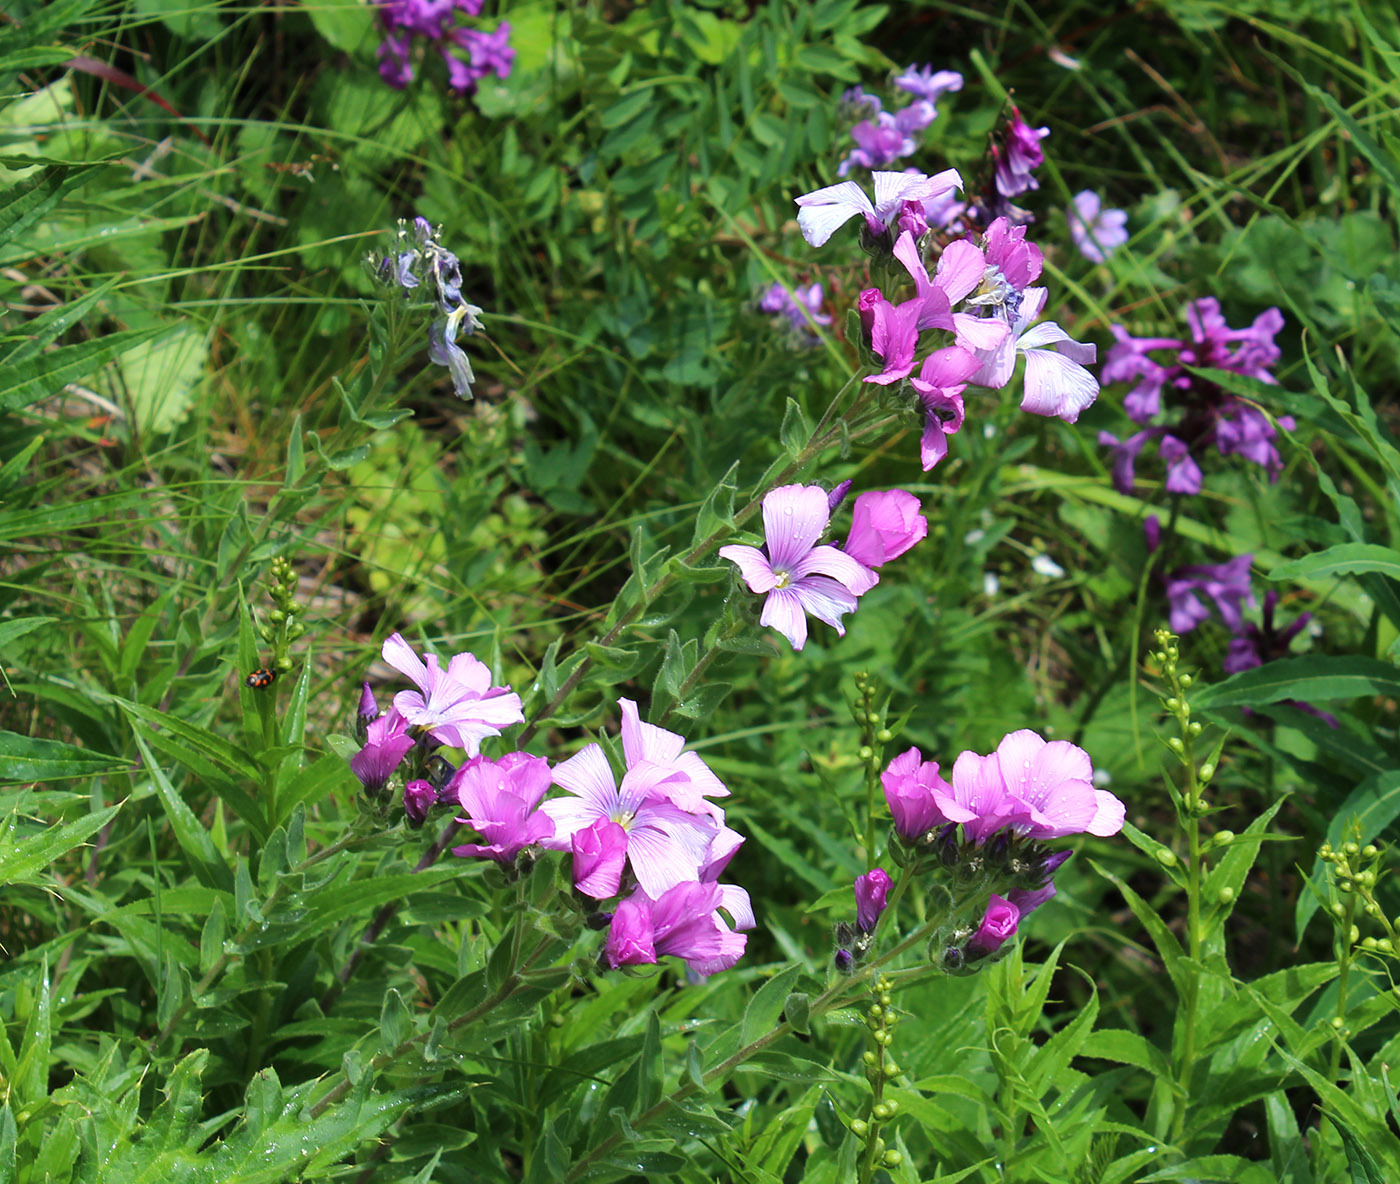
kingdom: Plantae
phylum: Tracheophyta
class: Magnoliopsida
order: Malpighiales
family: Linaceae
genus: Linum
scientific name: Linum hypericifolium
